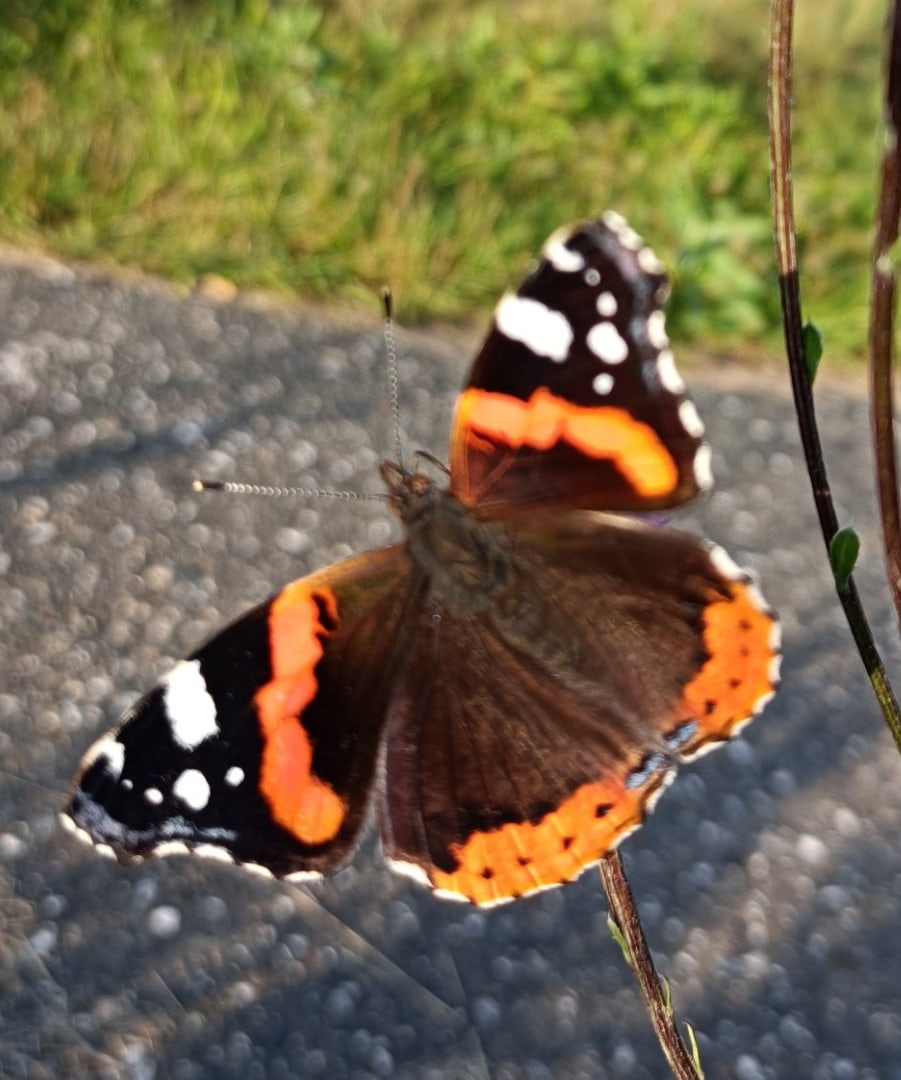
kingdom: Animalia
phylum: Arthropoda
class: Insecta
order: Lepidoptera
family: Nymphalidae
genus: Vanessa
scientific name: Vanessa atalanta
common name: Red admiral
